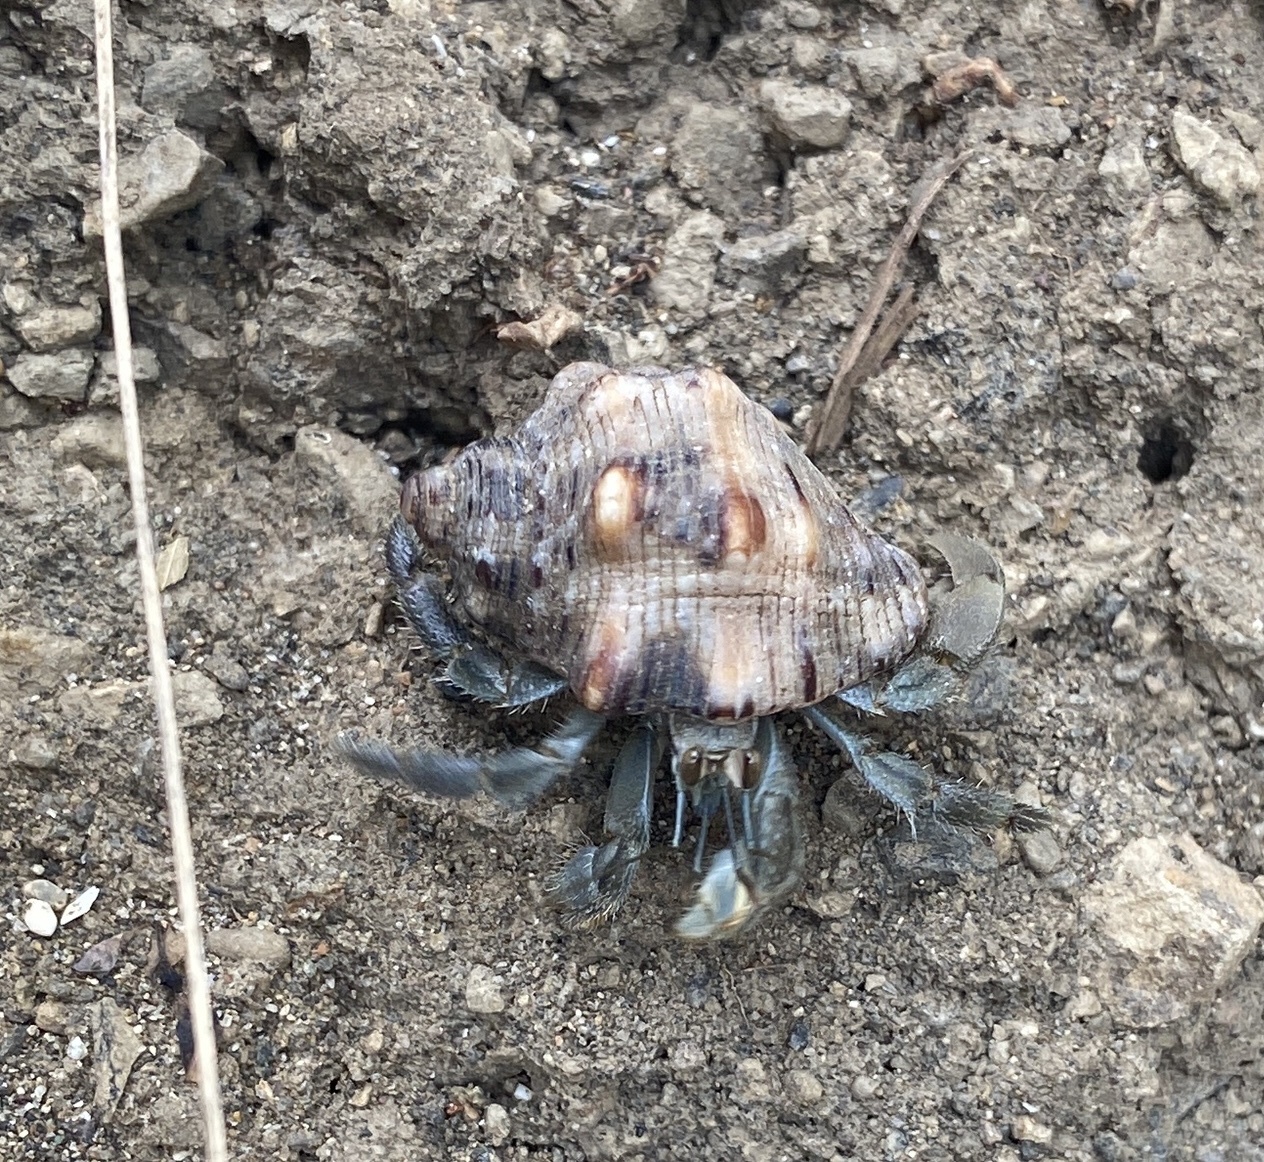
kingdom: Animalia
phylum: Arthropoda
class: Malacostraca
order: Decapoda
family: Coenobitidae
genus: Coenobita
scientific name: Coenobita compressus
